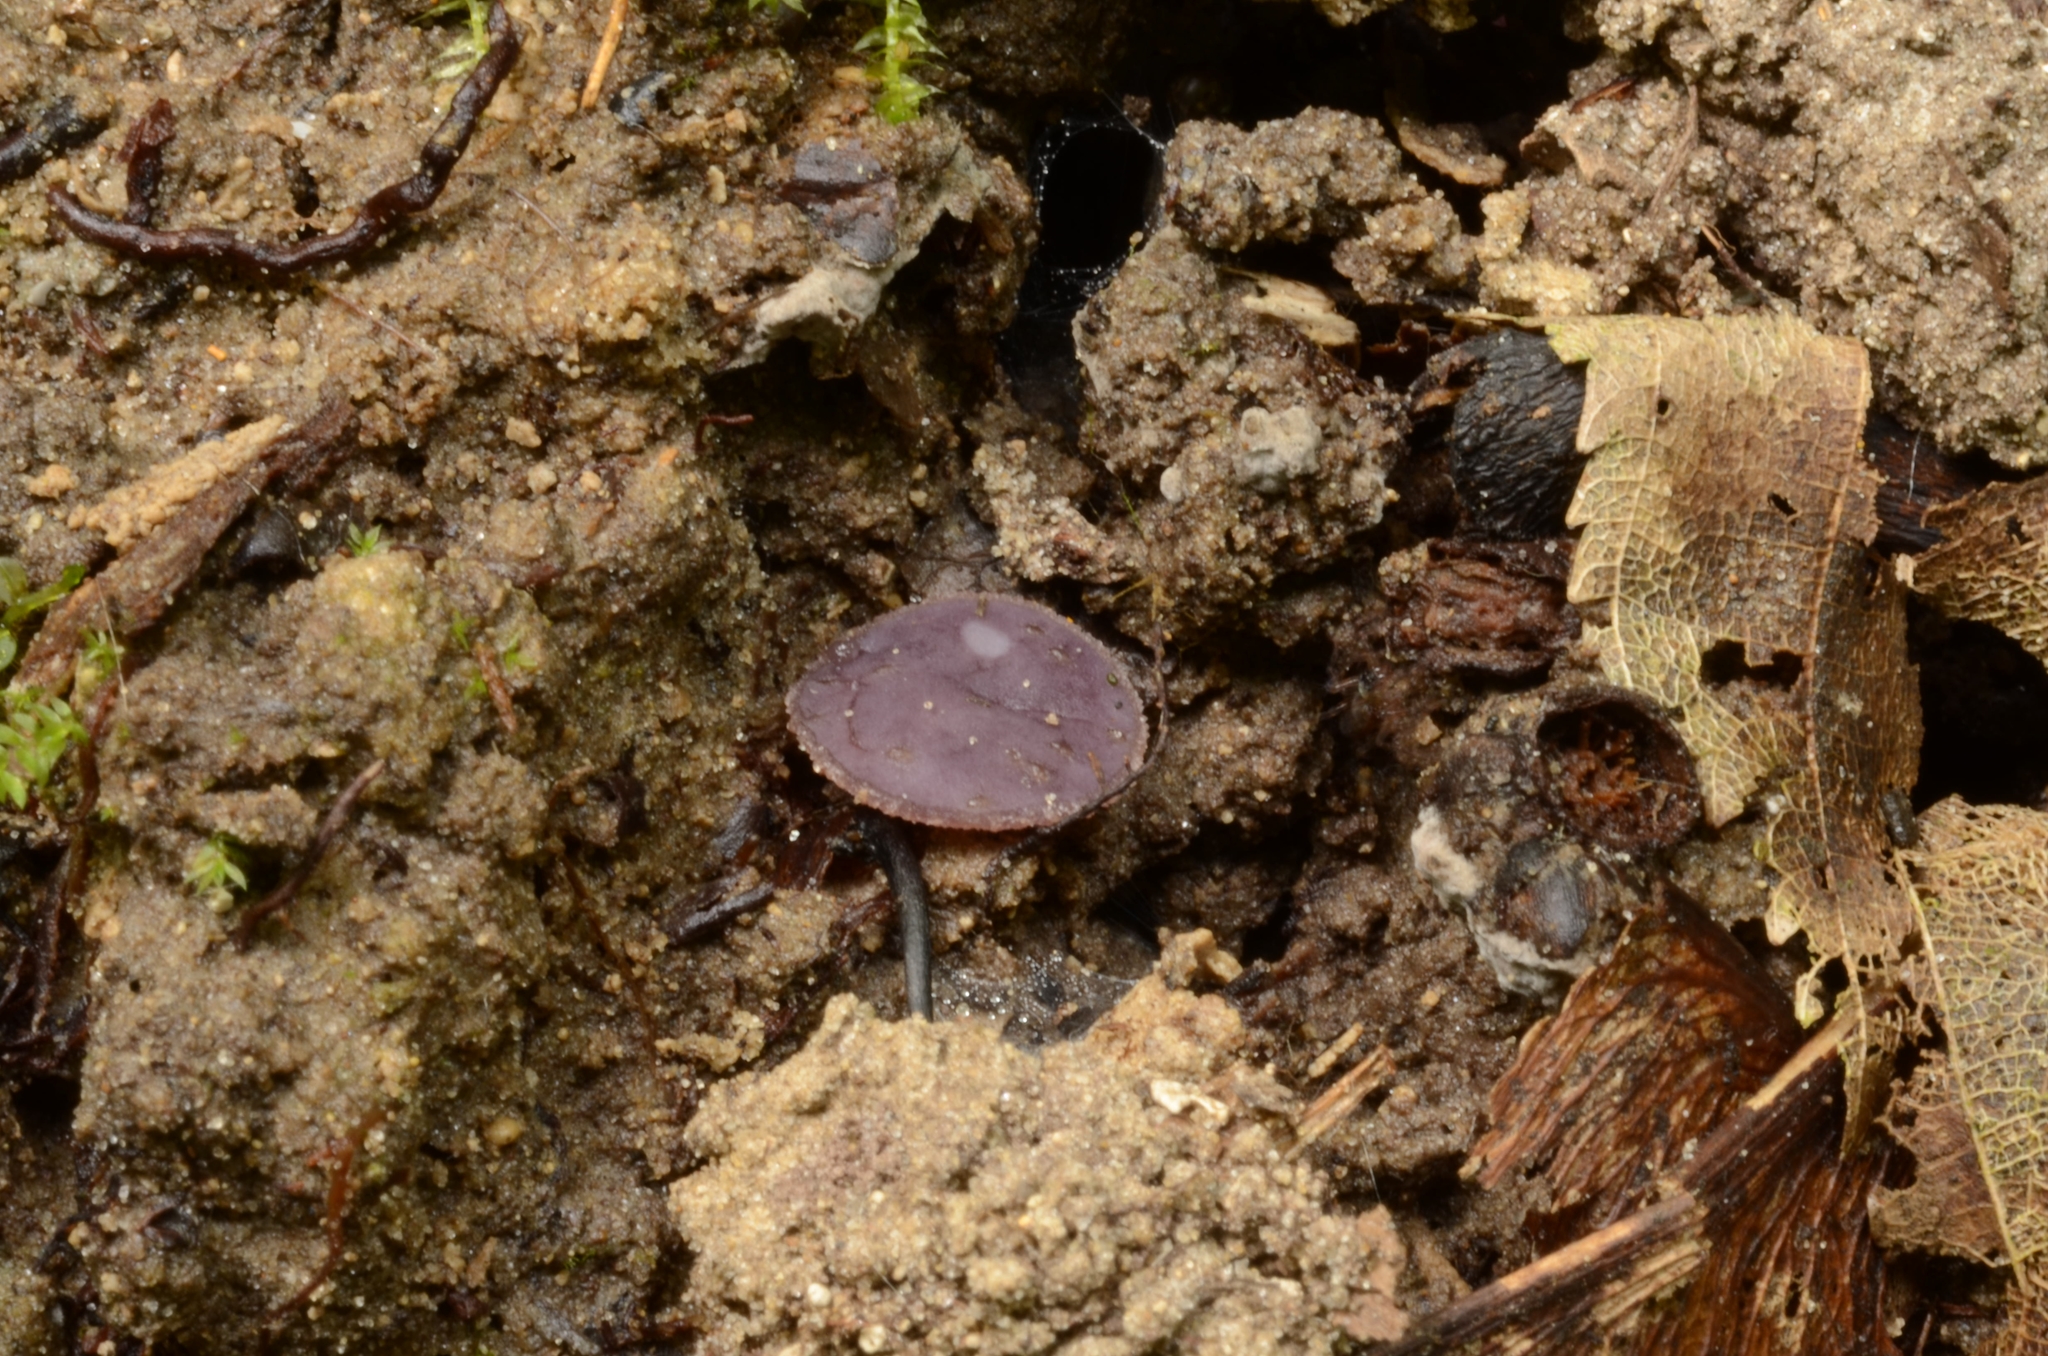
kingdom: Fungi
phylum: Ascomycota
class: Pezizomycetes
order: Pezizales
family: Pezizaceae
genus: Ionopezia
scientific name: Ionopezia gerardii
